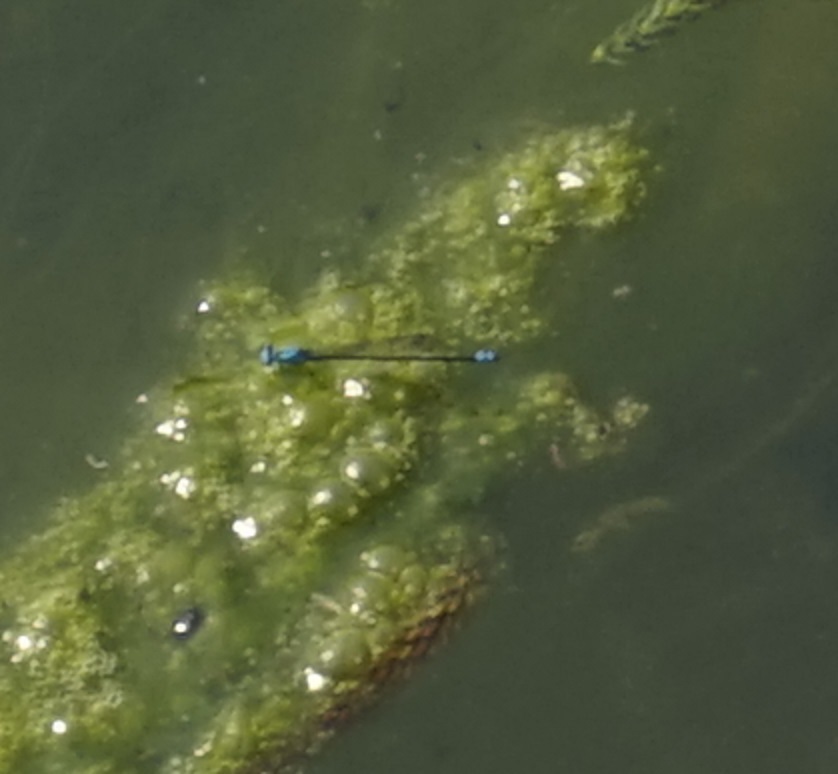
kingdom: Animalia
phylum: Arthropoda
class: Insecta
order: Odonata
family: Coenagrionidae
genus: Pseudagrion
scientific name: Pseudagrion microcephalum
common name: Blue riverdamsel
